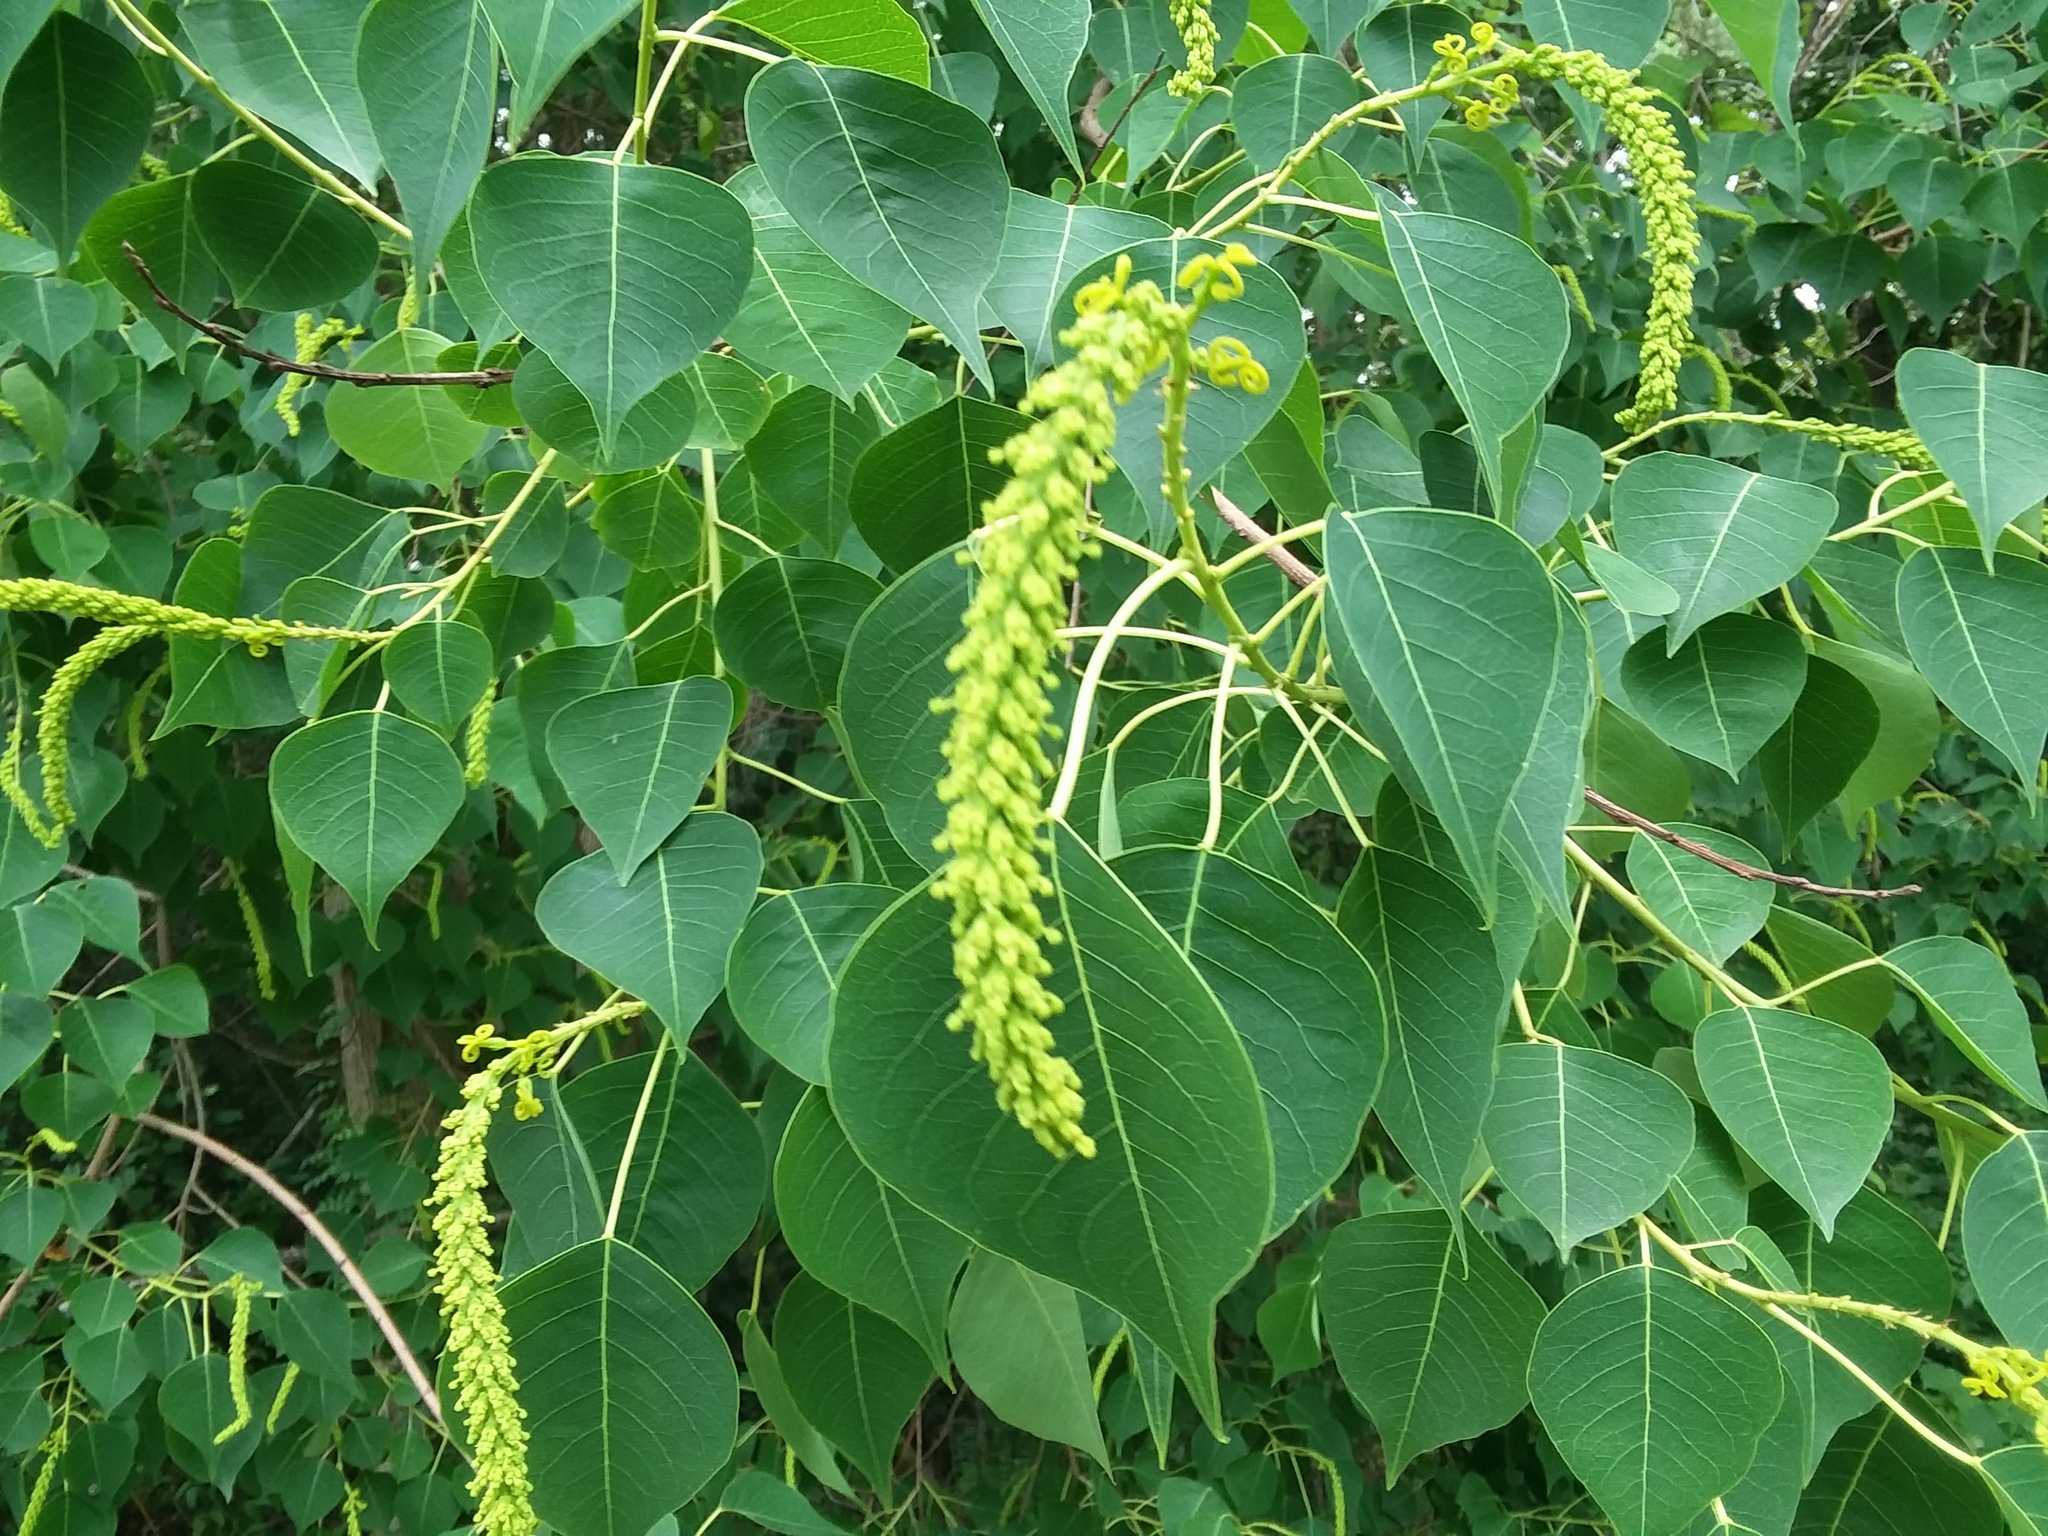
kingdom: Plantae
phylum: Tracheophyta
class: Magnoliopsida
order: Malpighiales
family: Euphorbiaceae
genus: Triadica
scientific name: Triadica sebifera
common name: Chinese tallow
